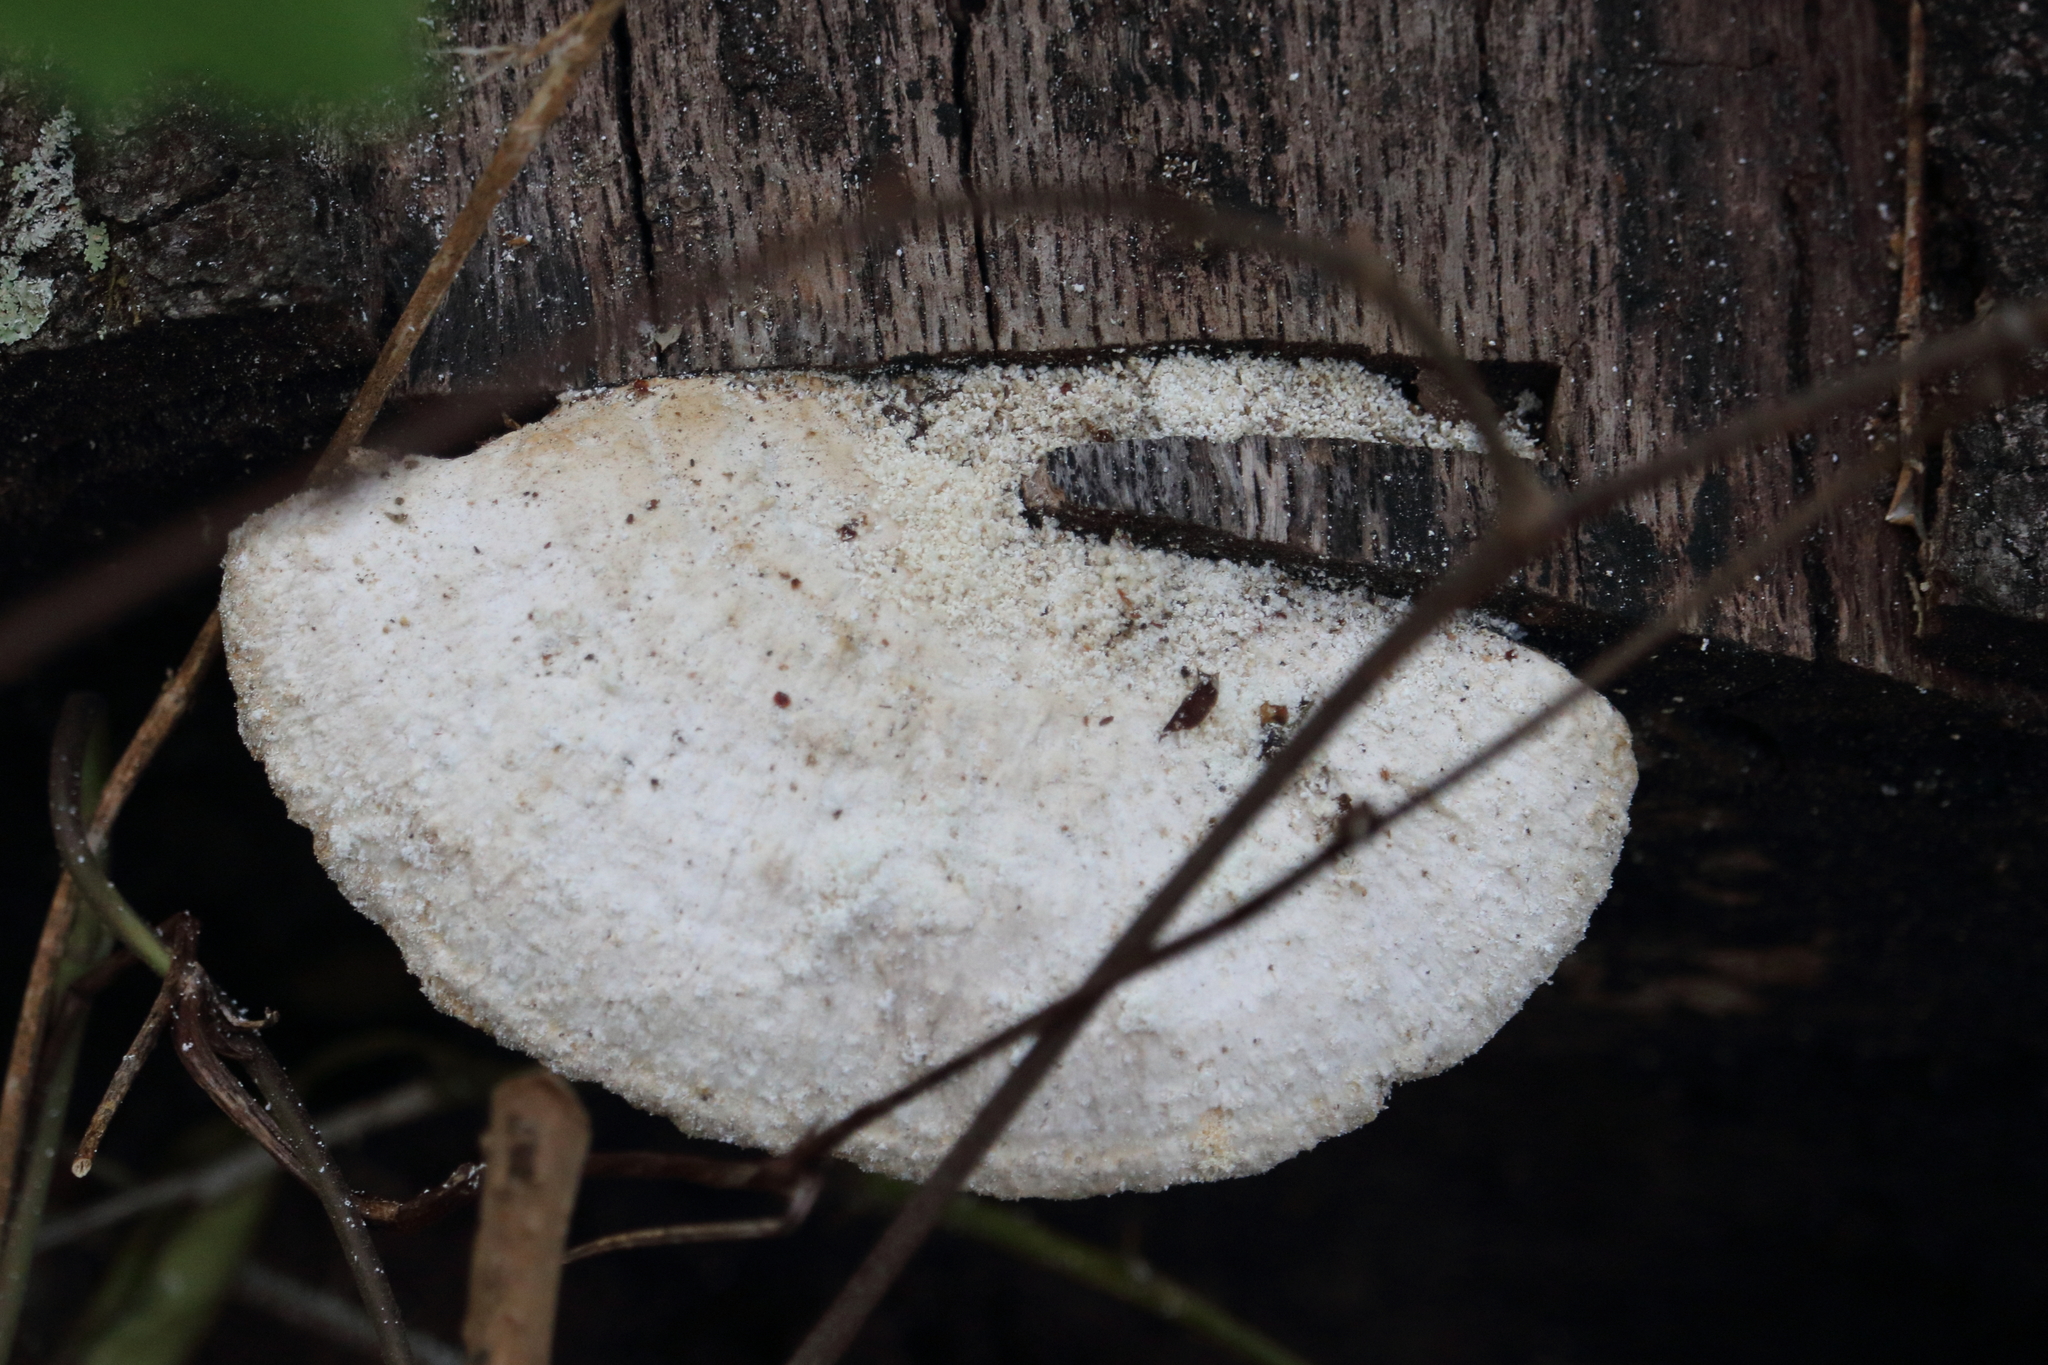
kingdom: Fungi
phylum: Basidiomycota
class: Agaricomycetes
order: Polyporales
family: Polyporaceae
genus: Trametes
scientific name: Trametes lactinea
